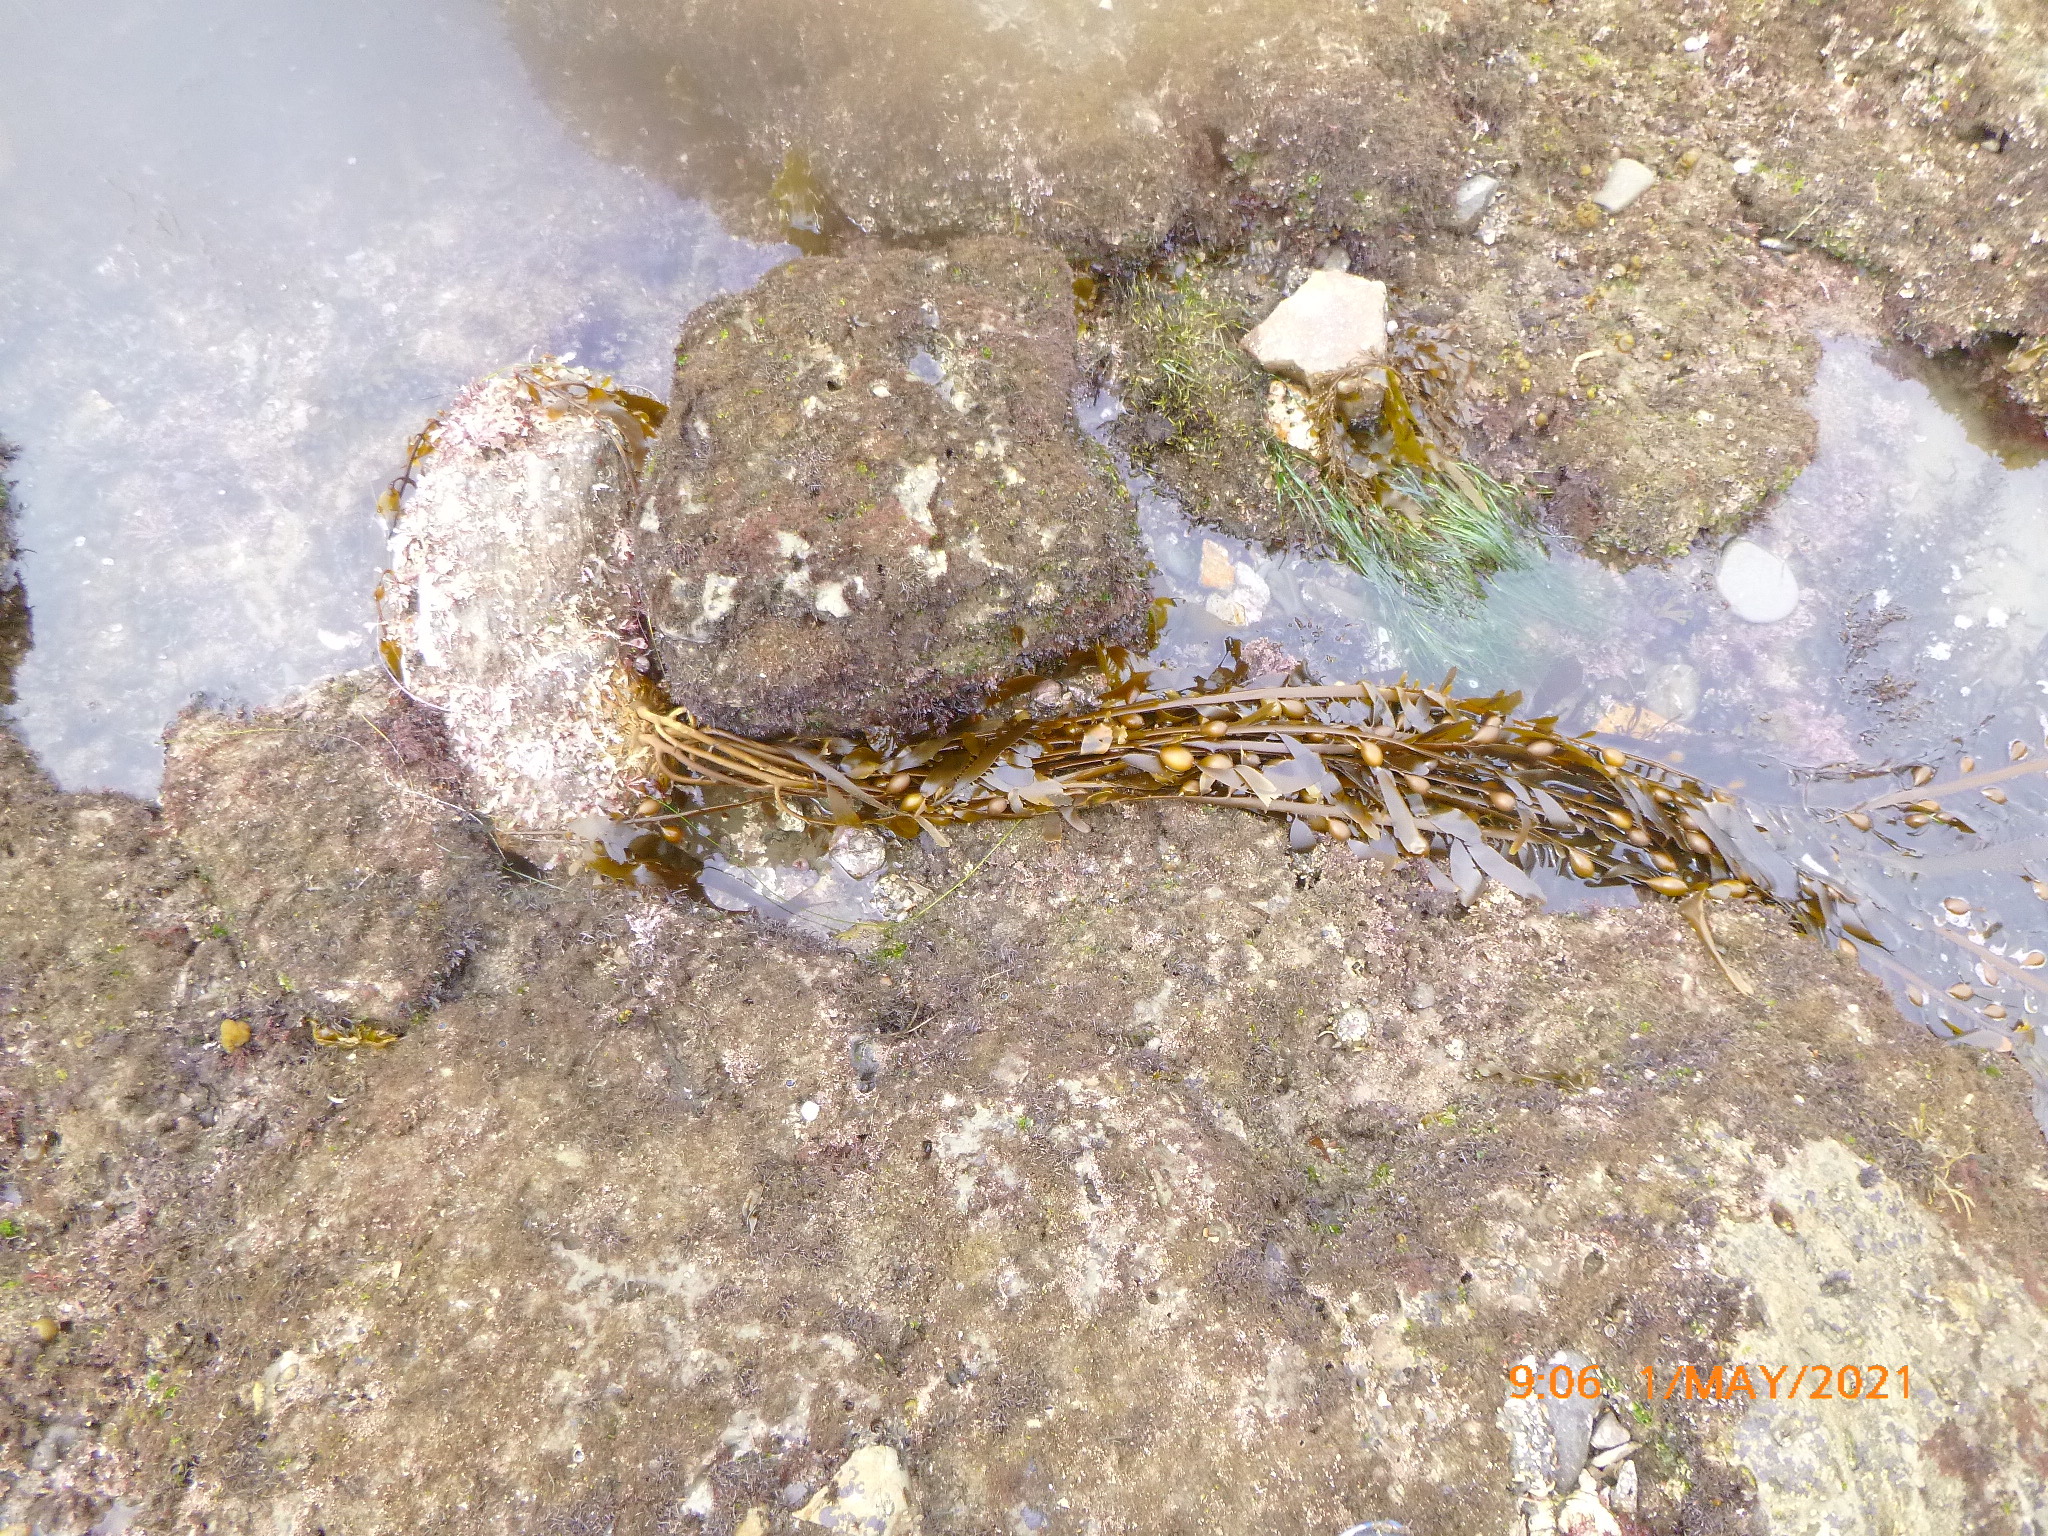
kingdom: Chromista
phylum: Ochrophyta
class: Phaeophyceae
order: Laminariales
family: Lessoniaceae
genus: Egregia
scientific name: Egregia menziesii
